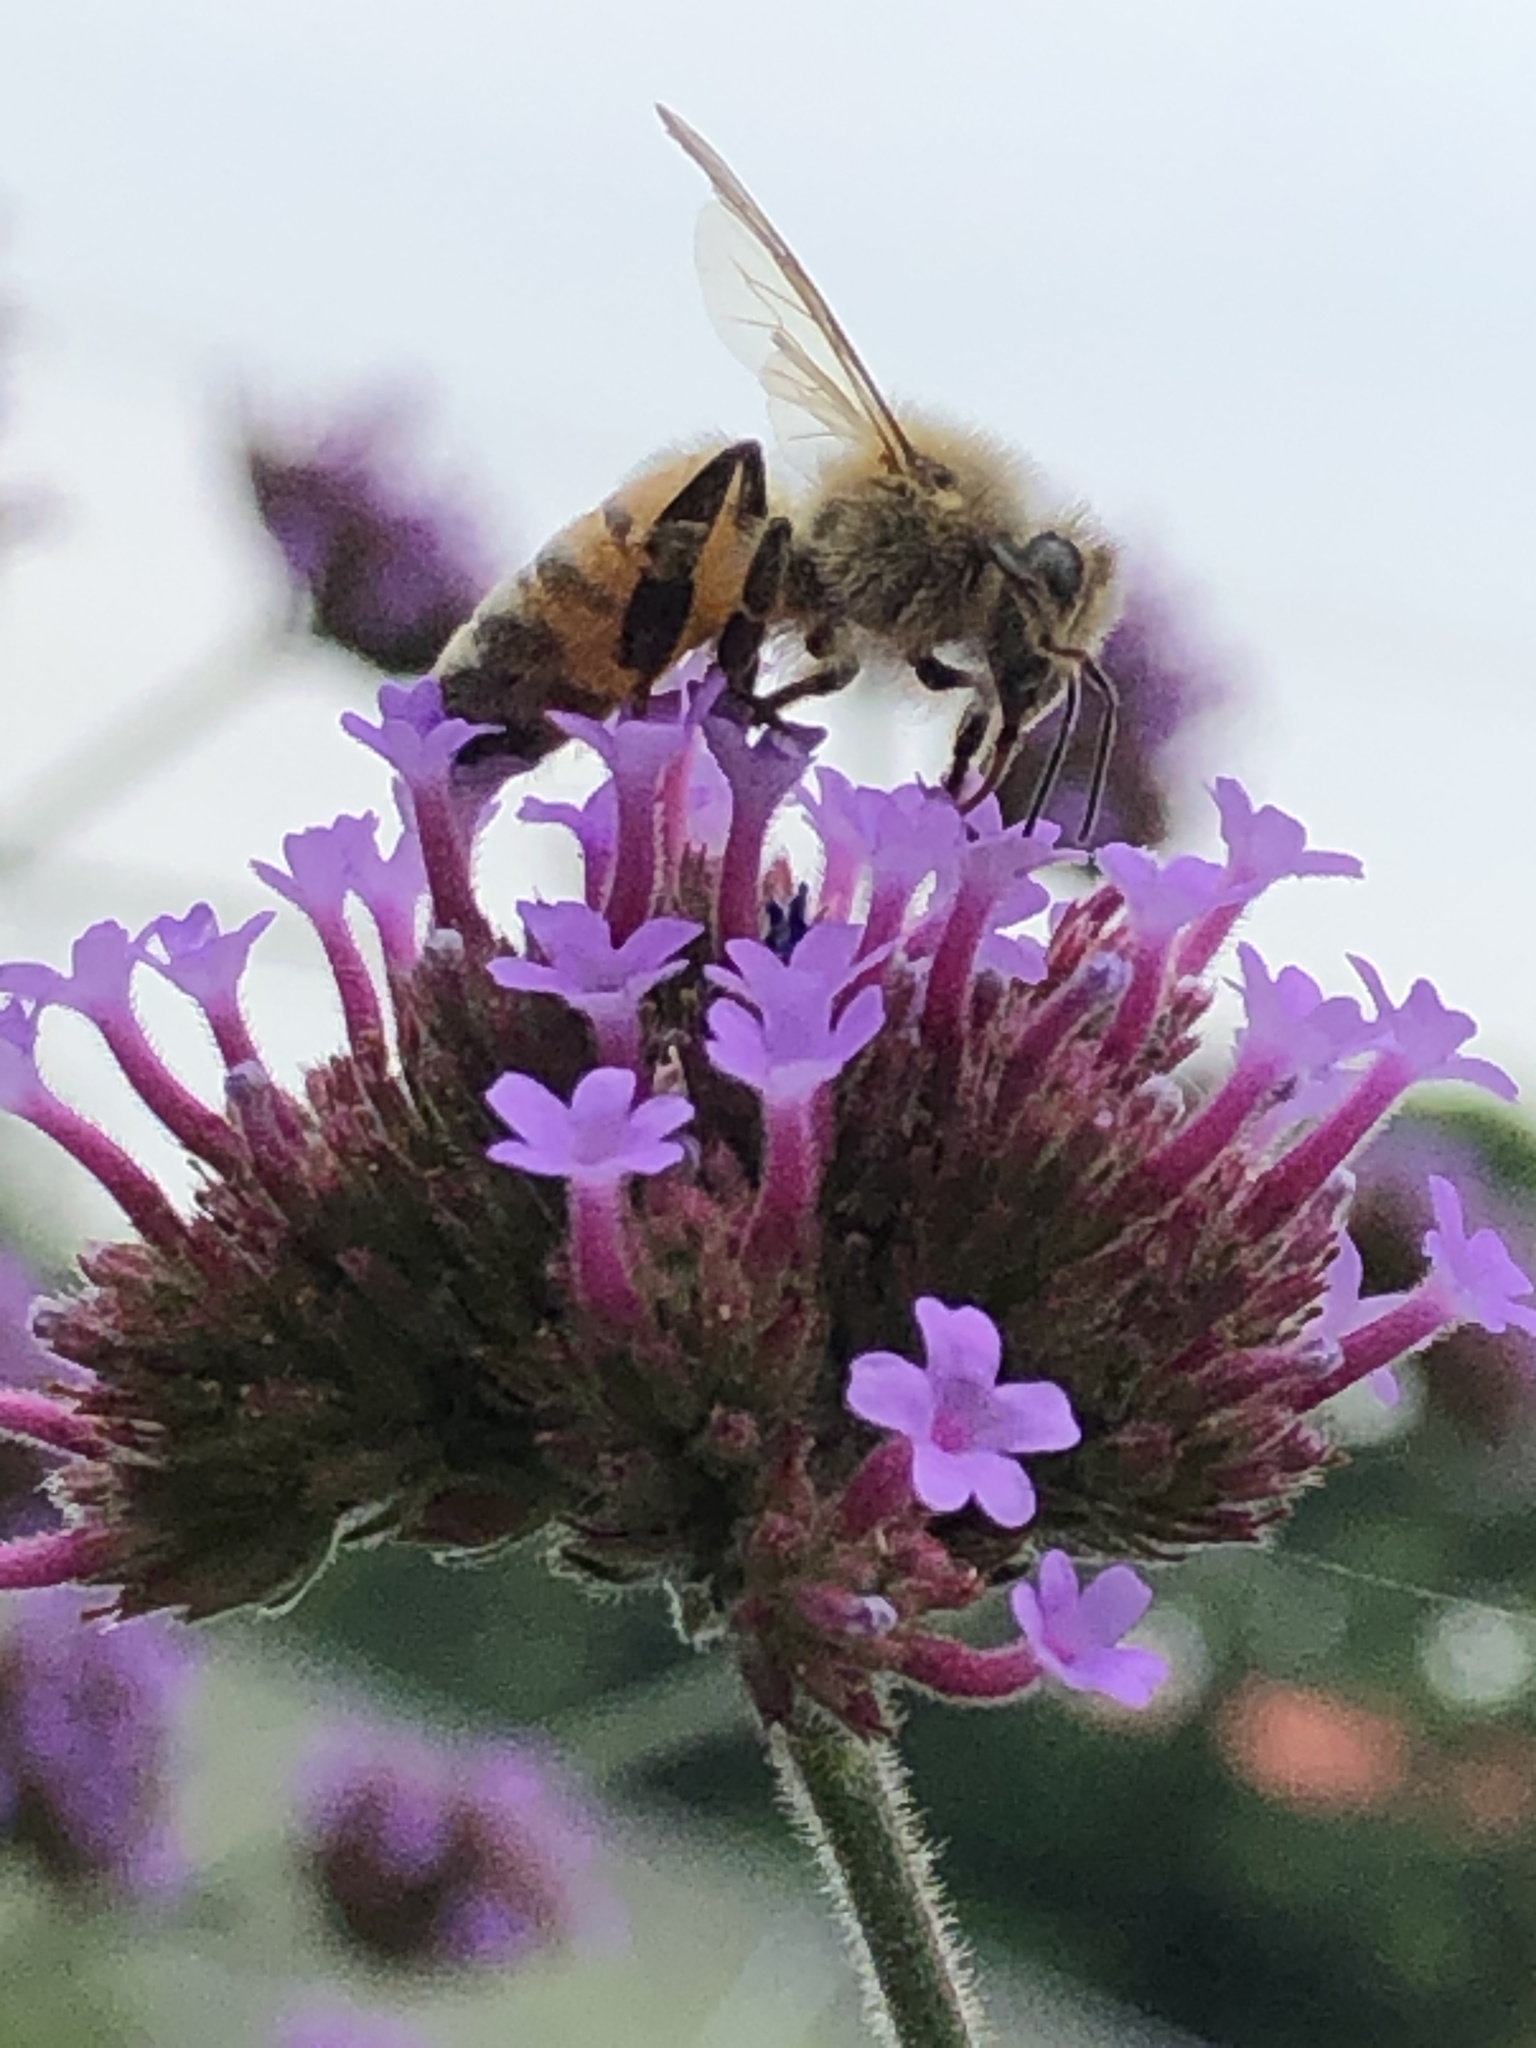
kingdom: Animalia
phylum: Arthropoda
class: Insecta
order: Hymenoptera
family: Apidae
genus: Apis
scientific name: Apis mellifera
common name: Honey bee
